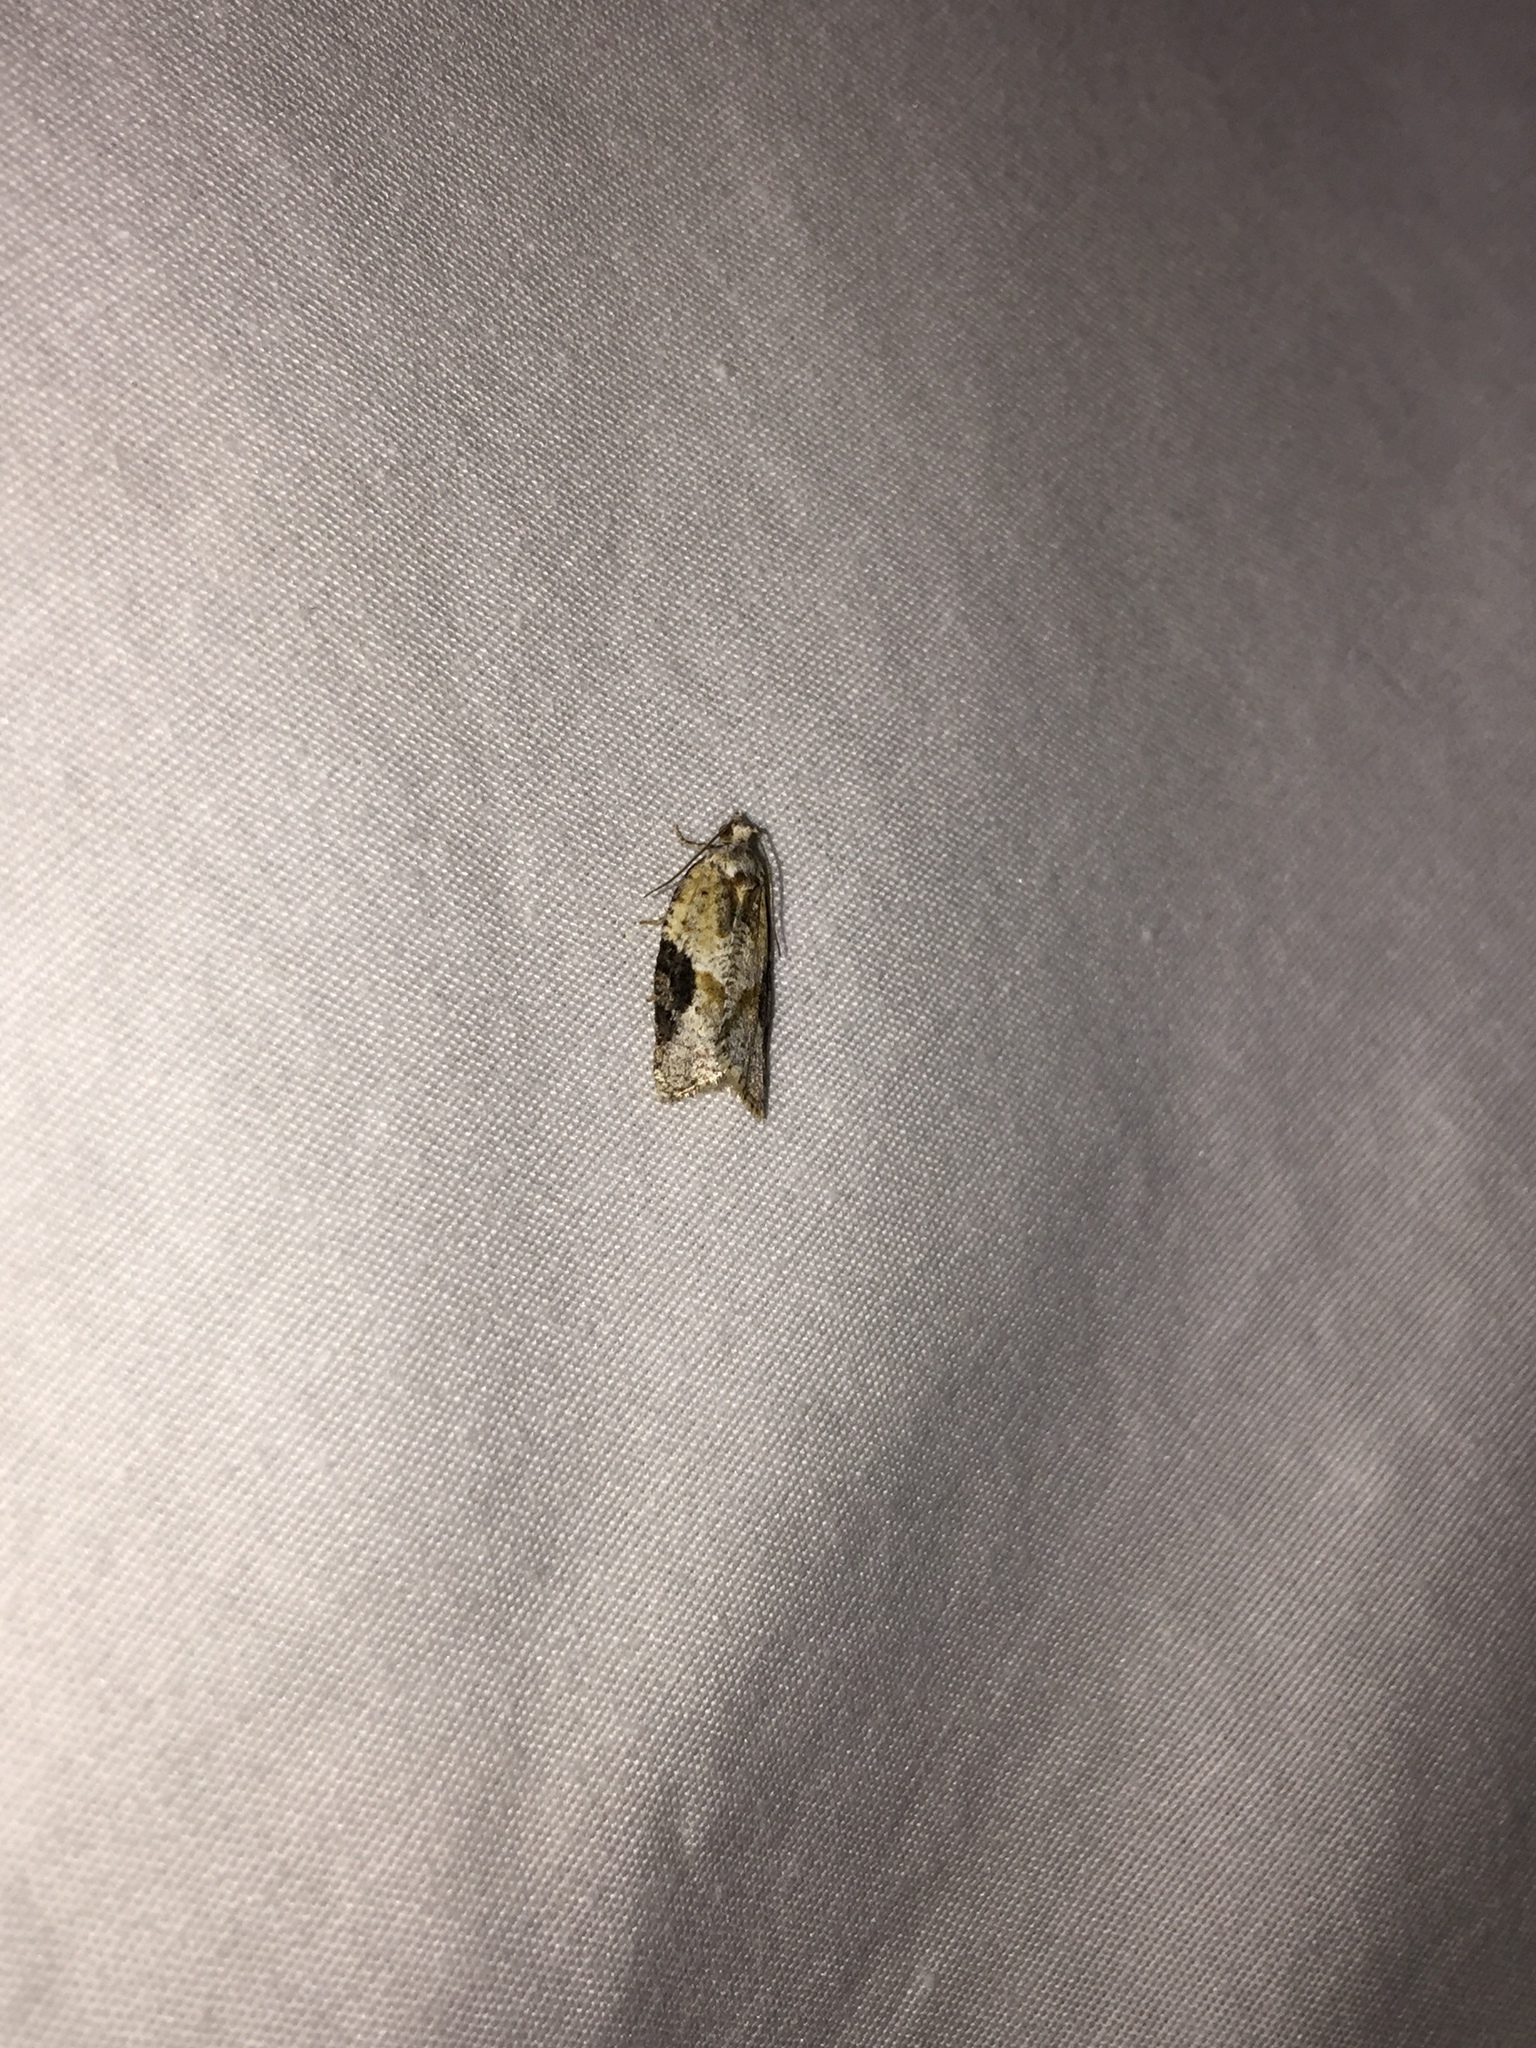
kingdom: Animalia
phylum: Arthropoda
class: Insecta
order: Lepidoptera
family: Tortricidae
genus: Argyrotaenia
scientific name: Argyrotaenia mariana
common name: Gray-banded leafroller moth
